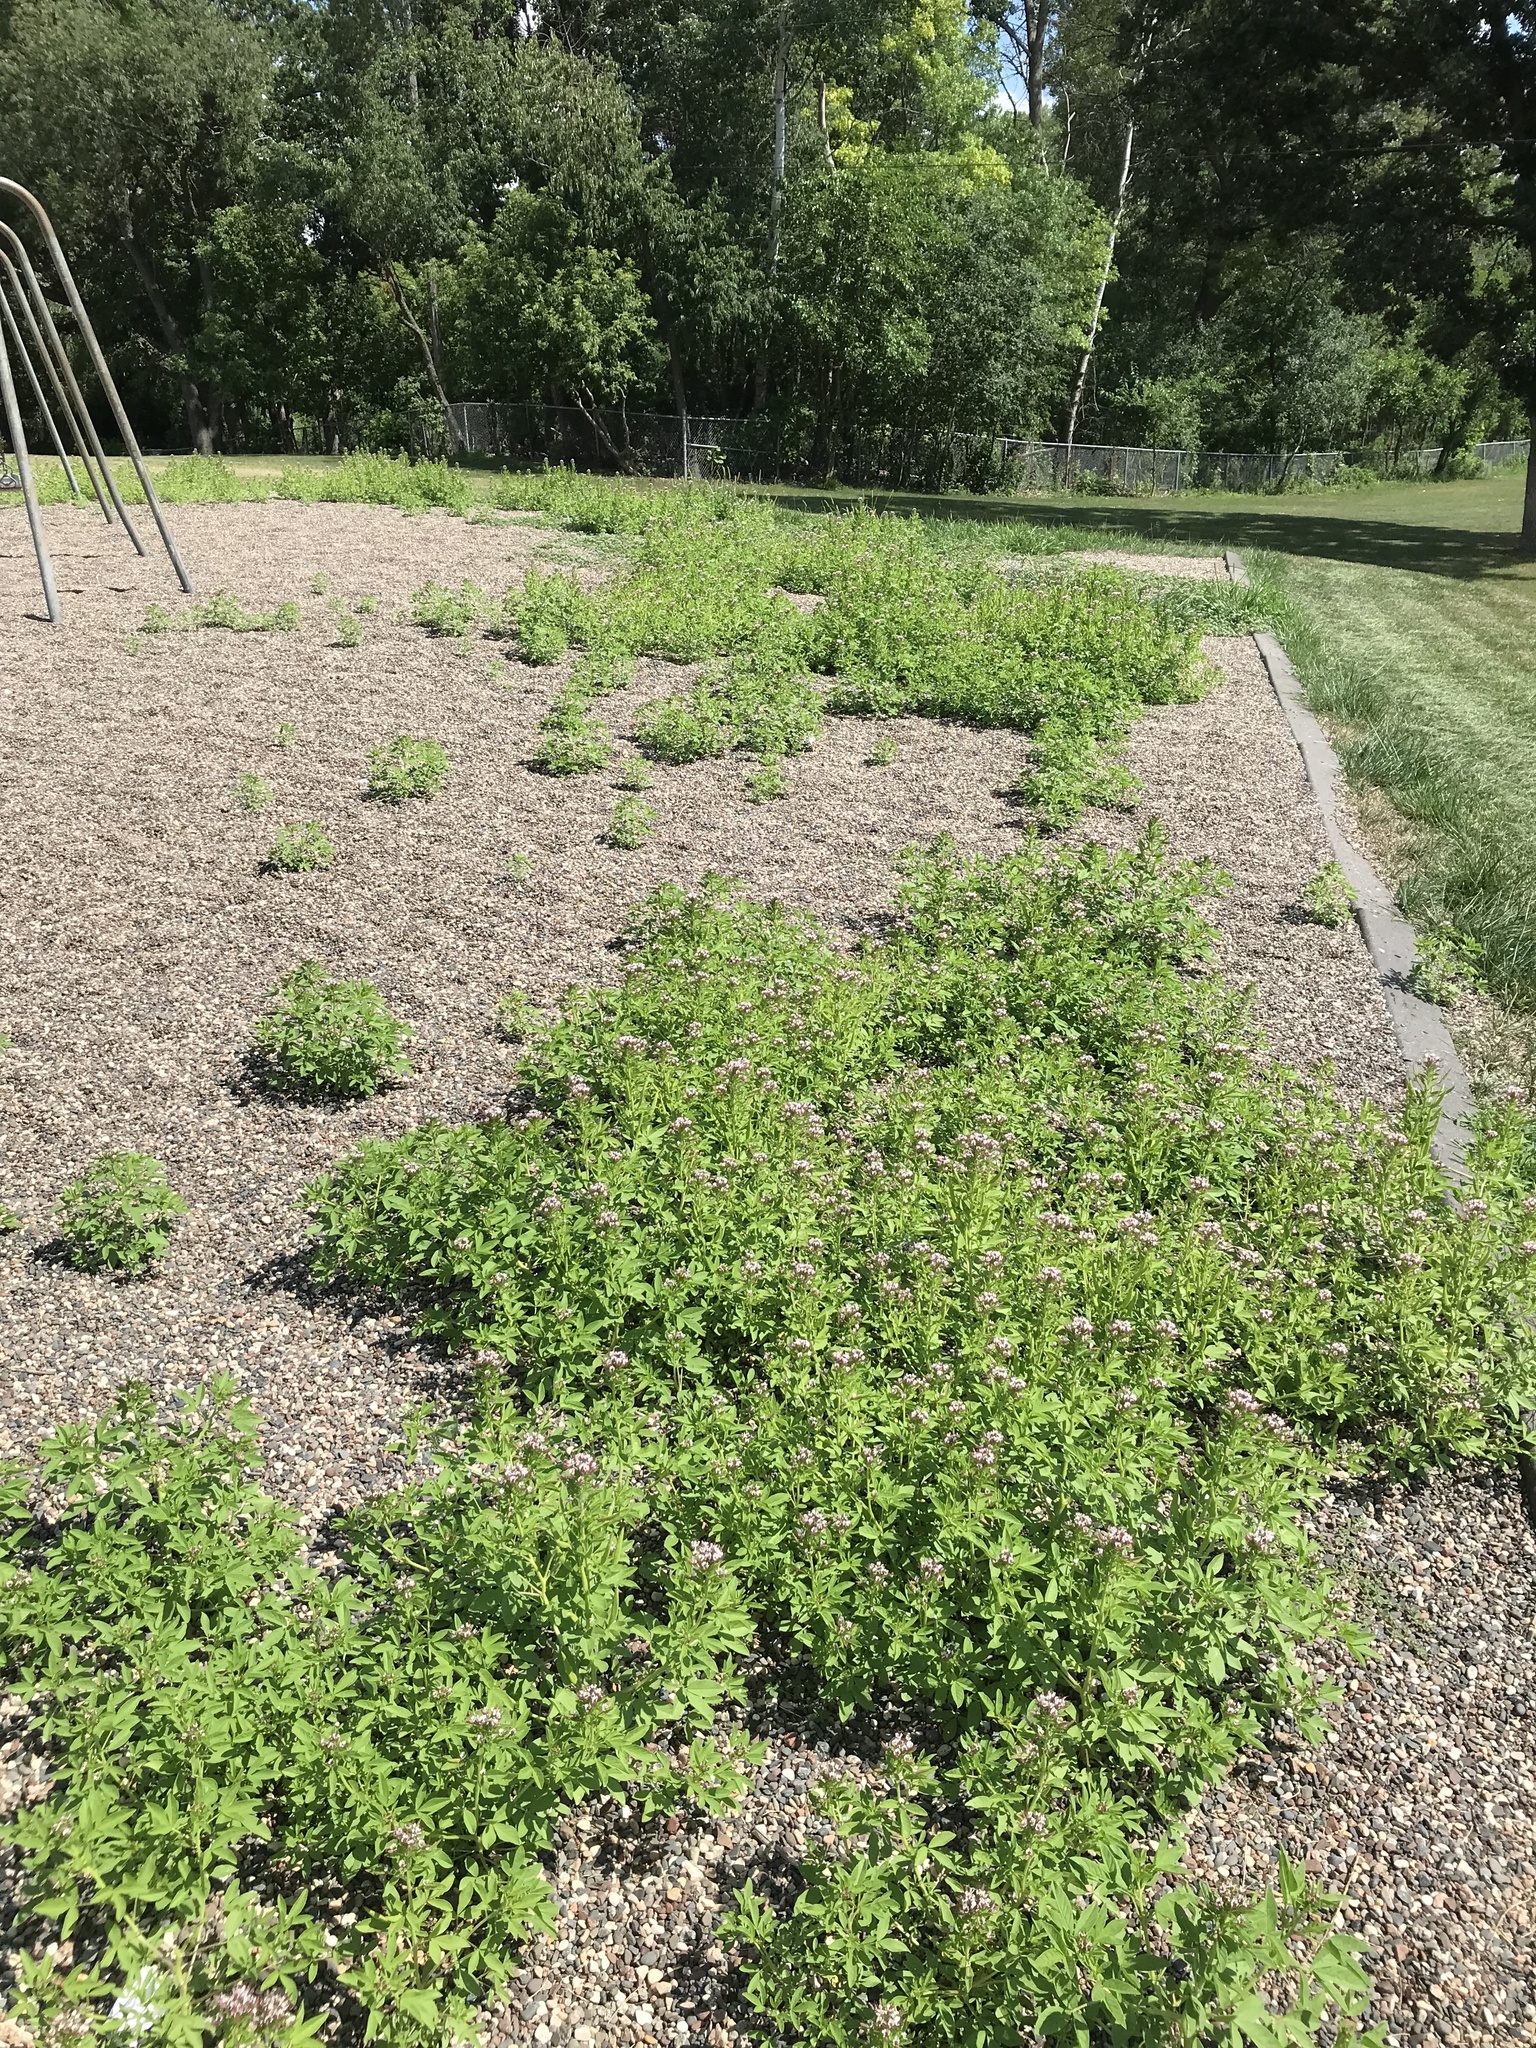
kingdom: Plantae
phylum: Tracheophyta
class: Magnoliopsida
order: Brassicales
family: Cleomaceae
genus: Polanisia
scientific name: Polanisia dodecandra
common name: Clammyweed
